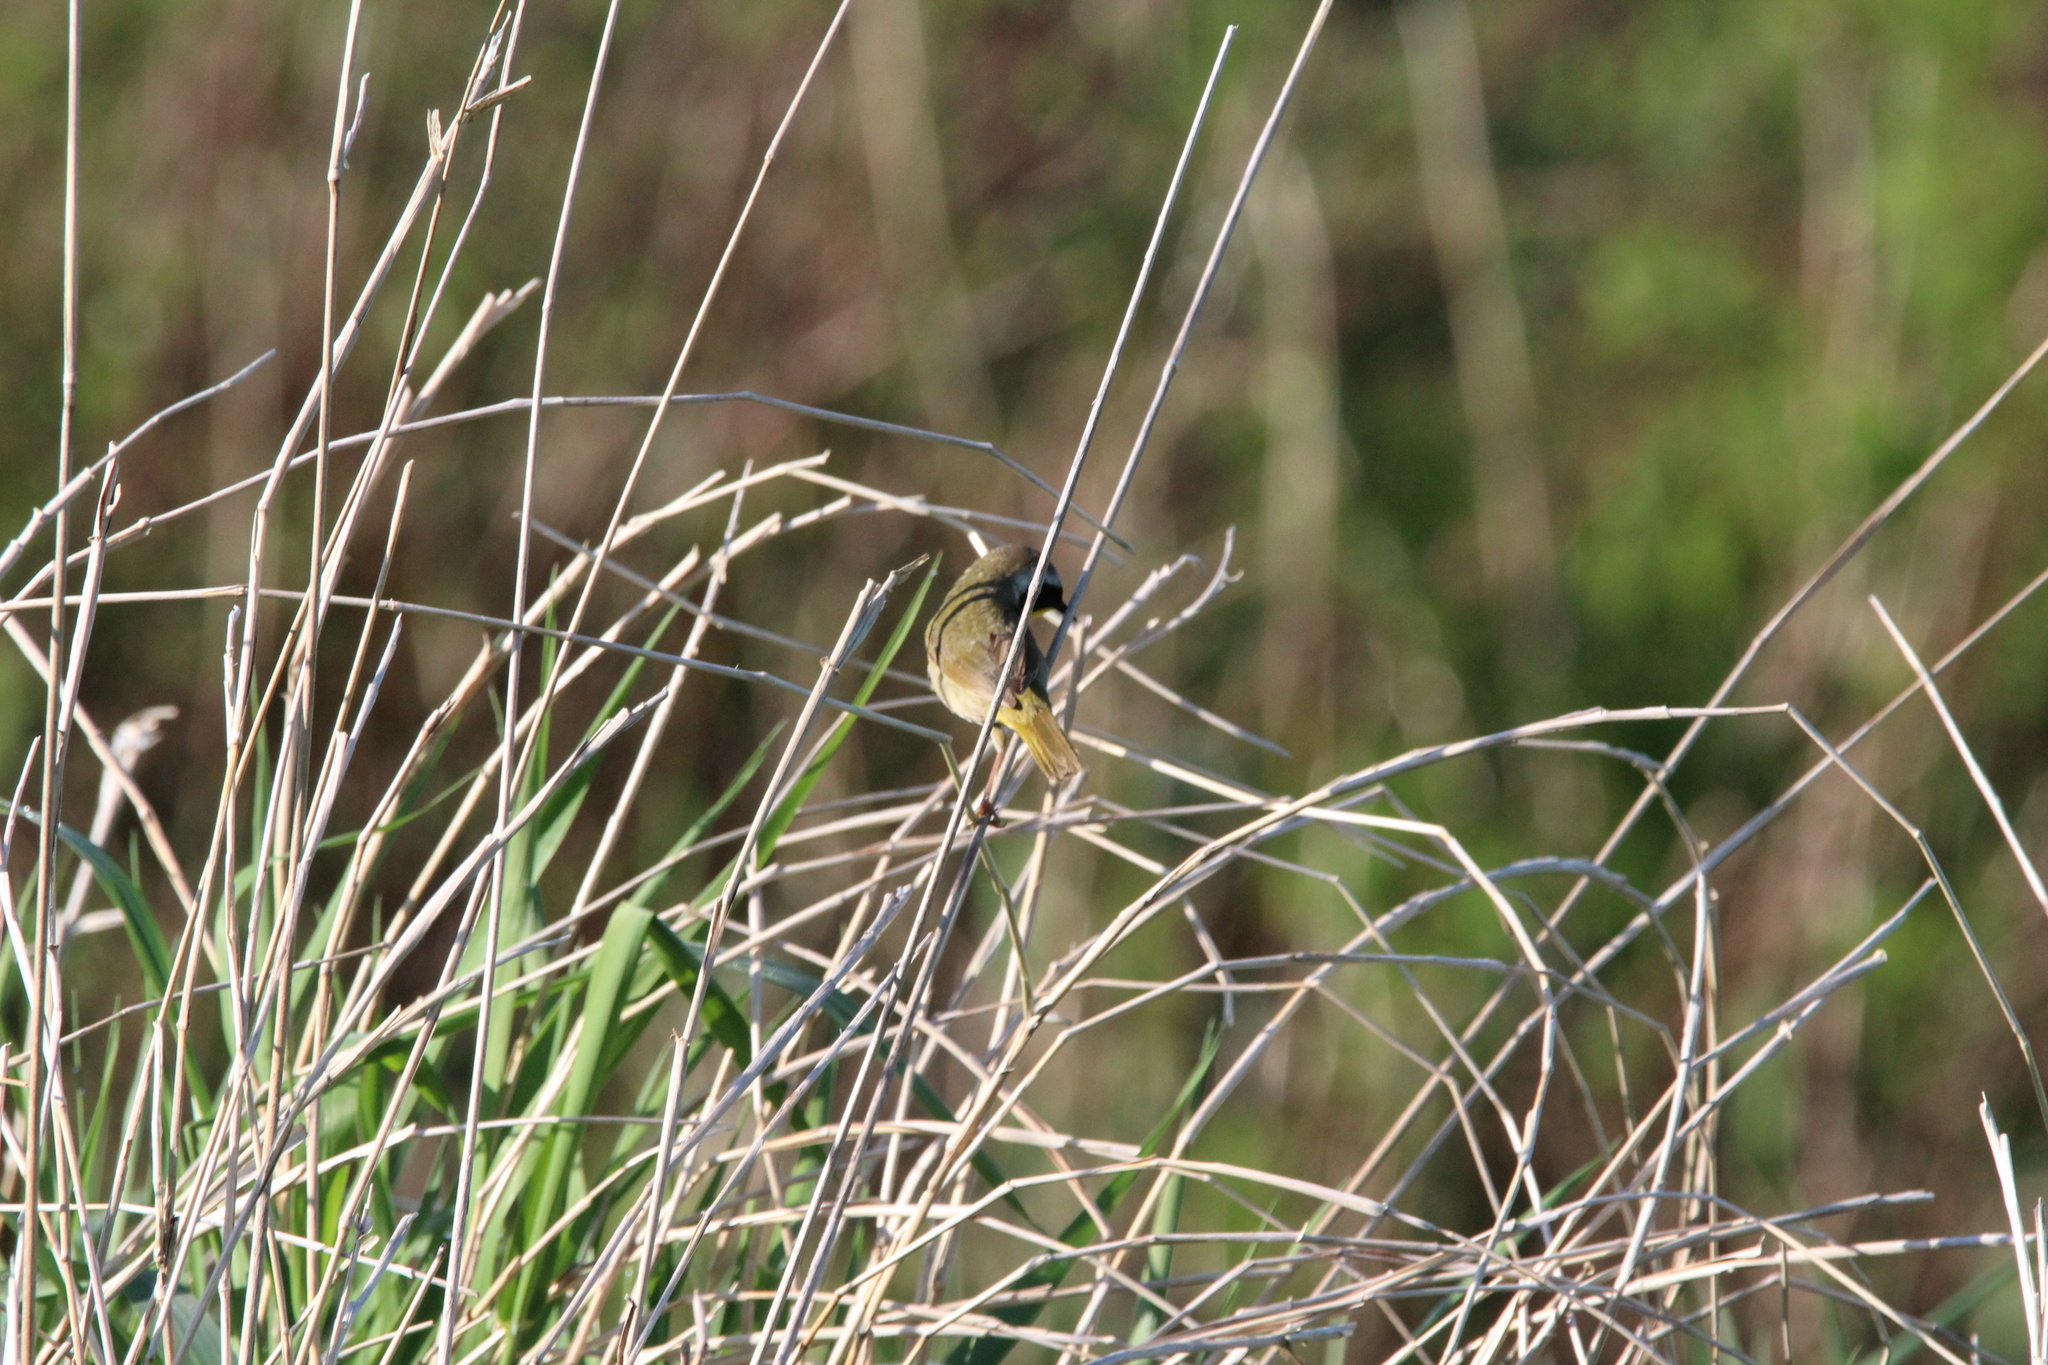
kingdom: Animalia
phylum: Chordata
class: Aves
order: Passeriformes
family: Parulidae
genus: Geothlypis
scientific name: Geothlypis trichas
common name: Common yellowthroat
